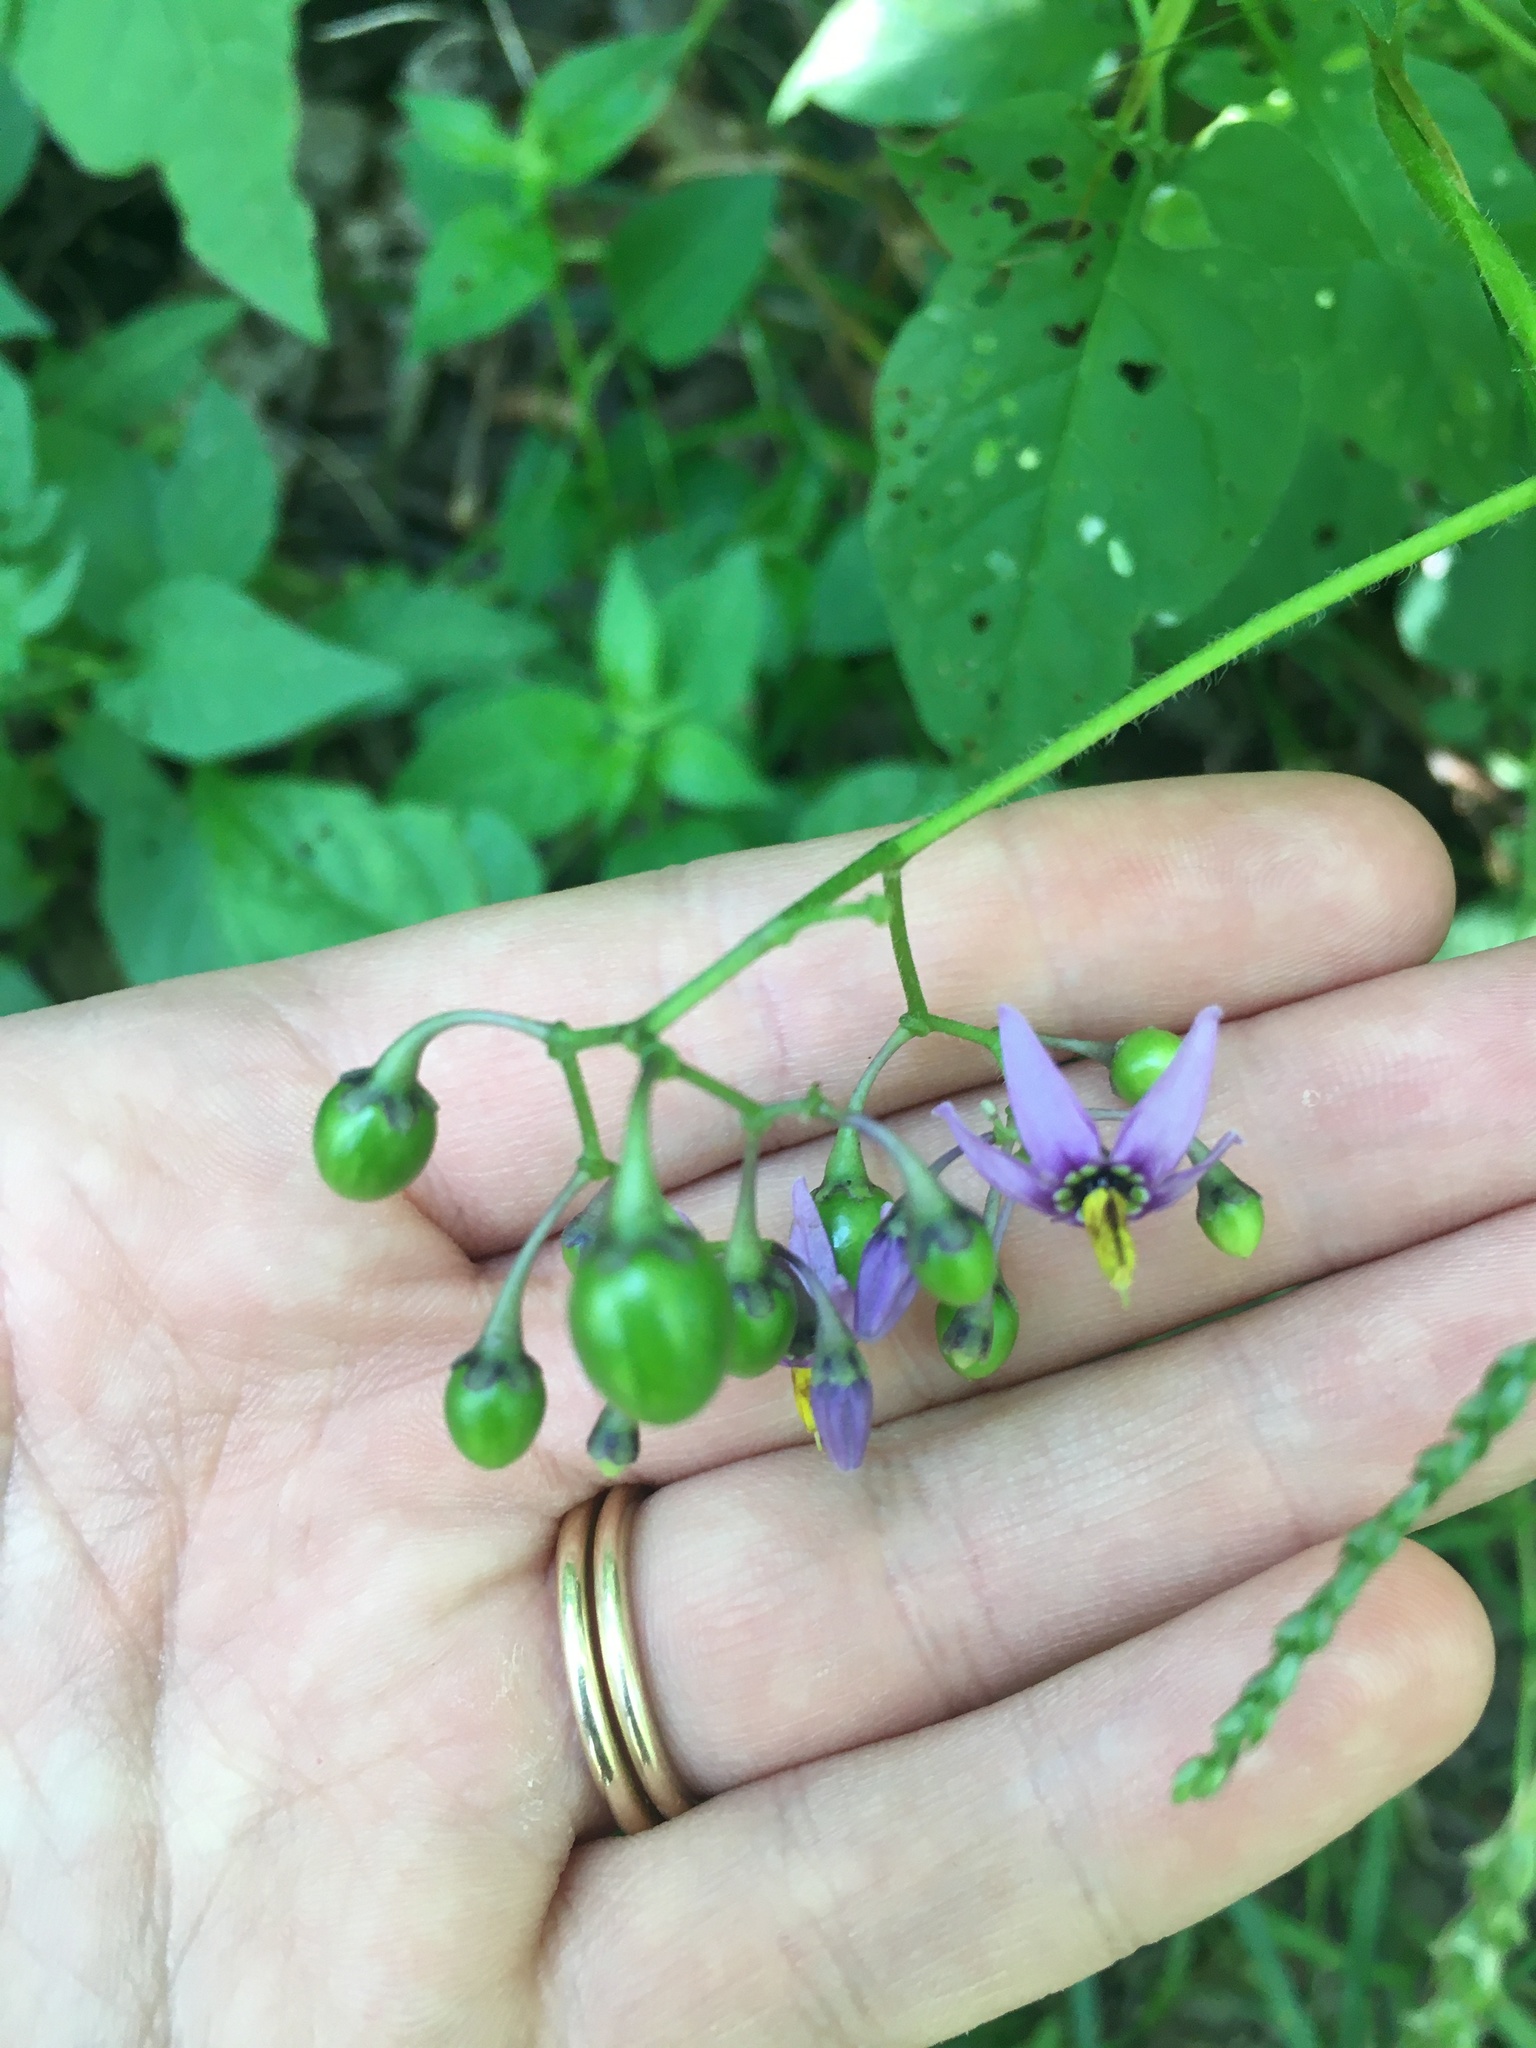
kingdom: Plantae
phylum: Tracheophyta
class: Magnoliopsida
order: Solanales
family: Solanaceae
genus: Solanum
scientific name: Solanum dulcamara
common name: Climbing nightshade
